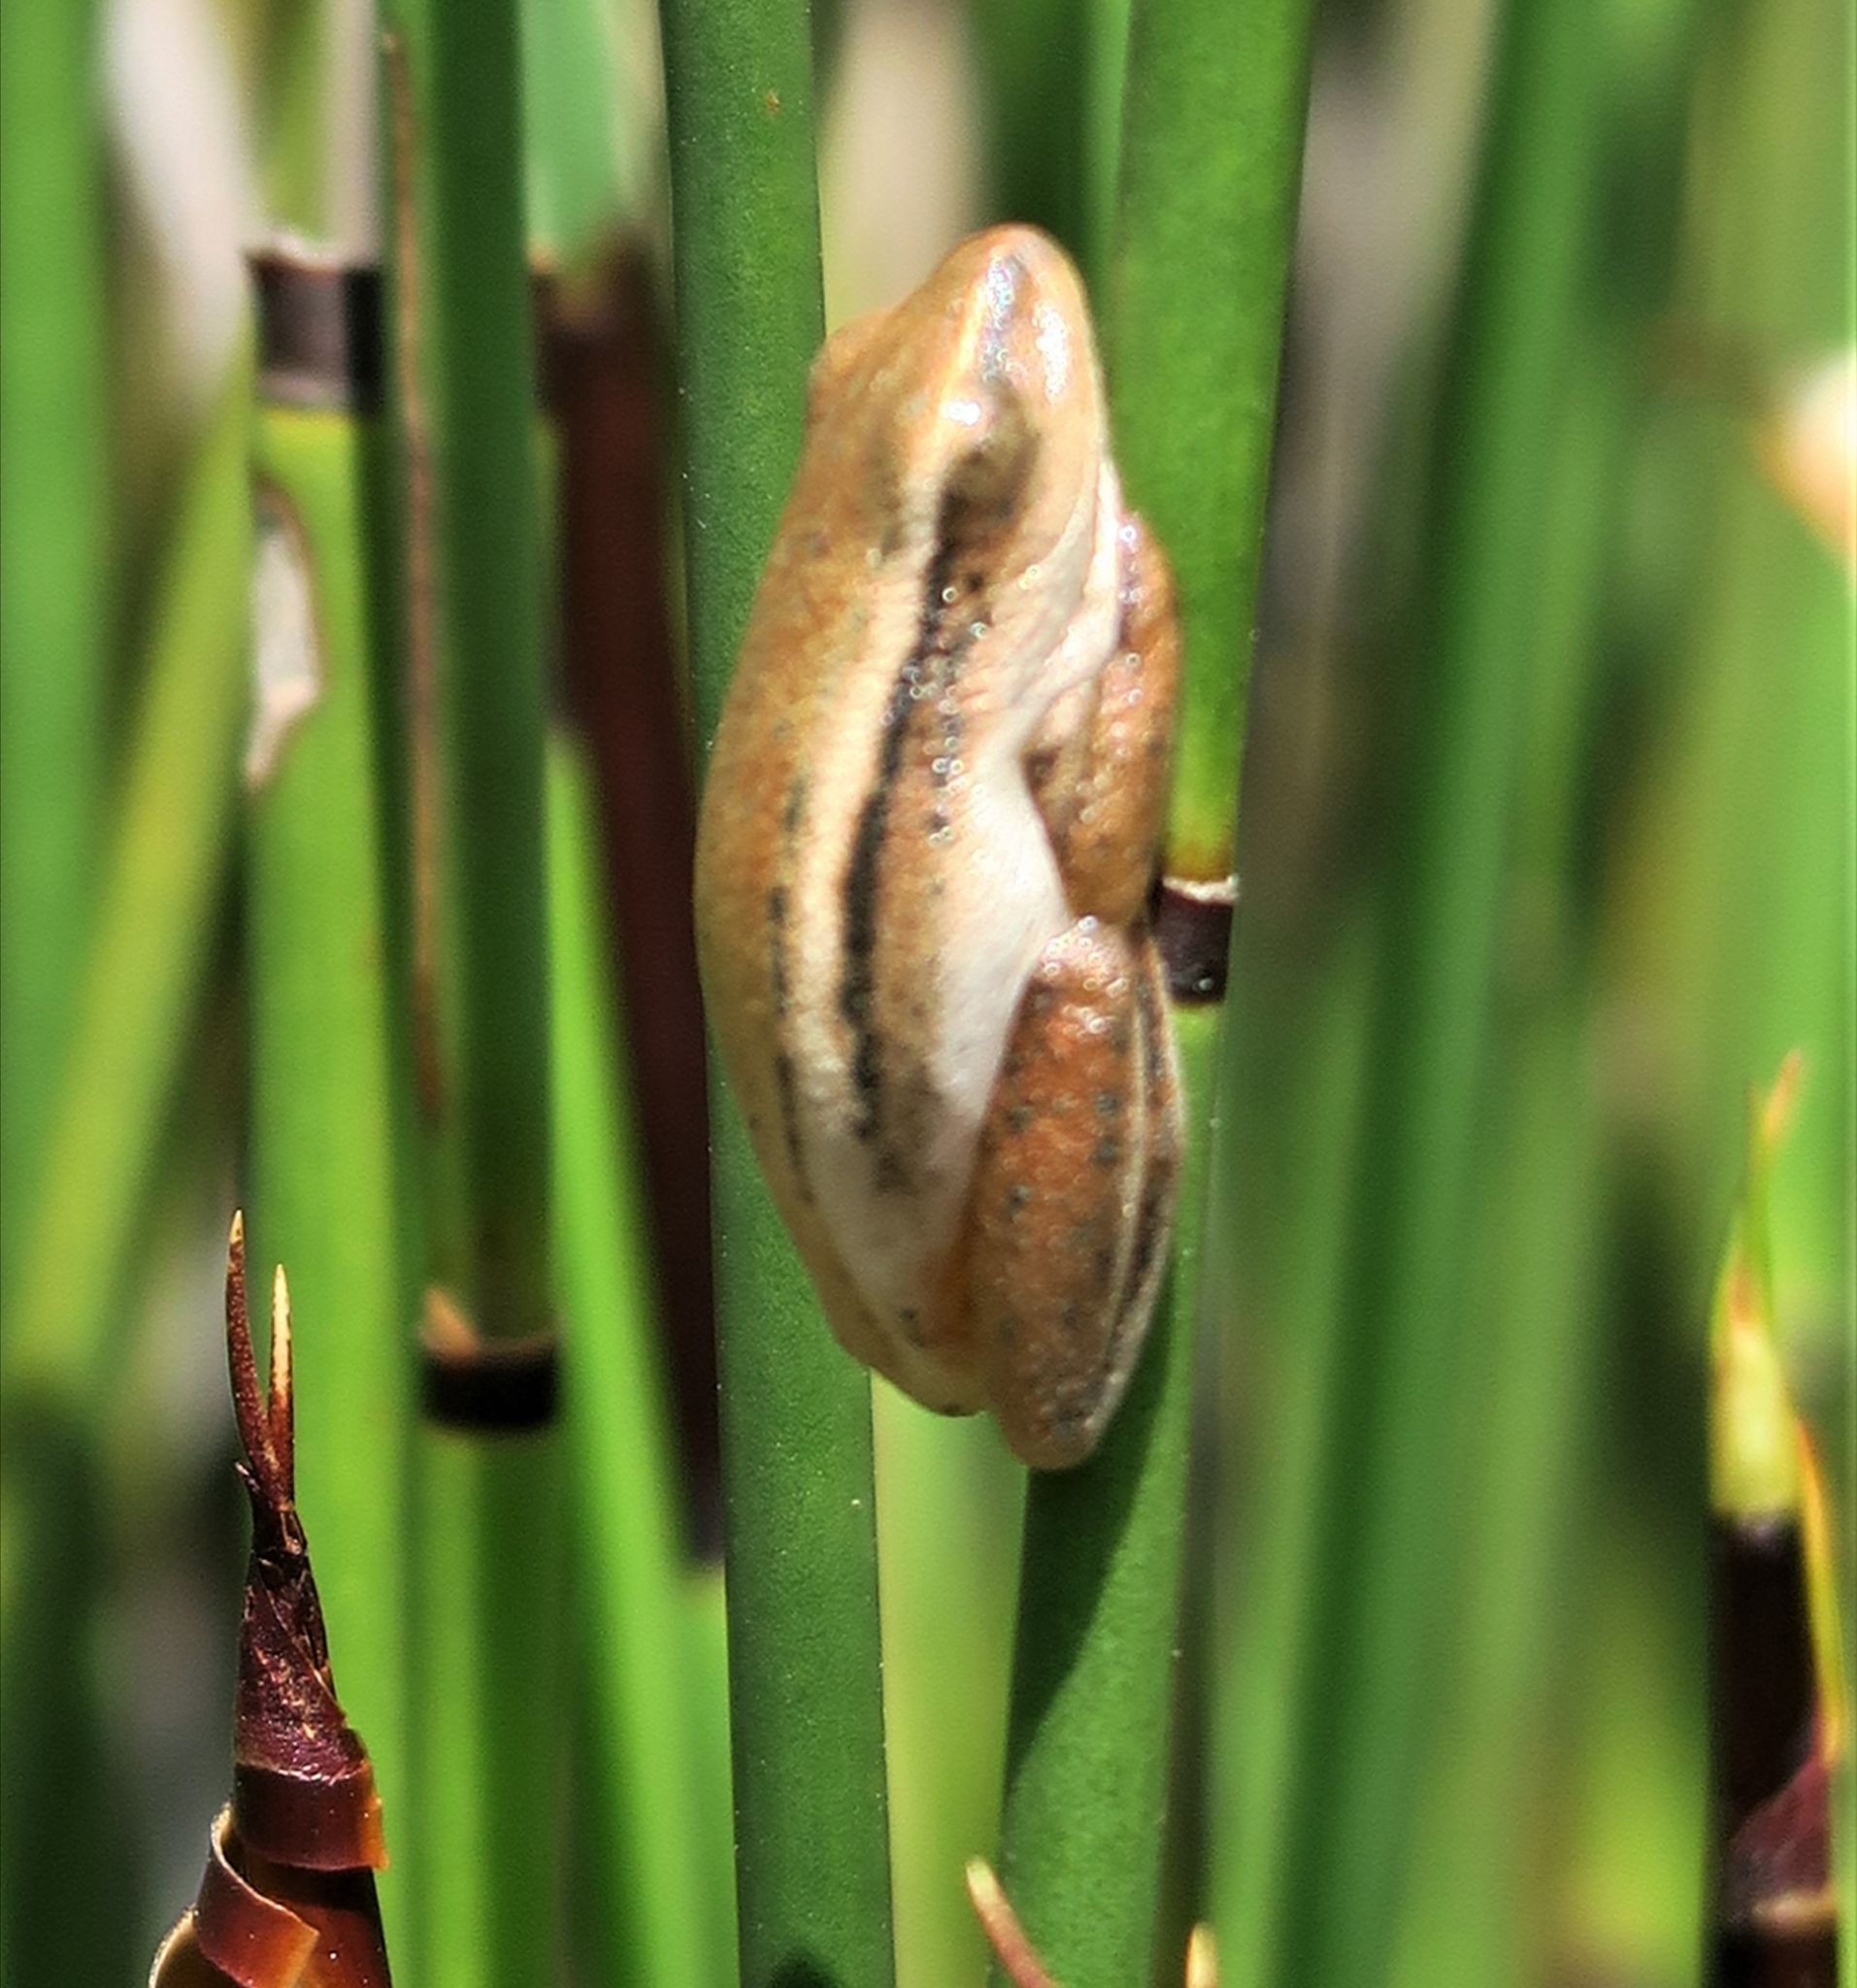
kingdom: Animalia
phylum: Chordata
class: Amphibia
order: Anura
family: Hyperoliidae
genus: Hyperolius
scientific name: Hyperolius horstockii
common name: Arum lily frog
